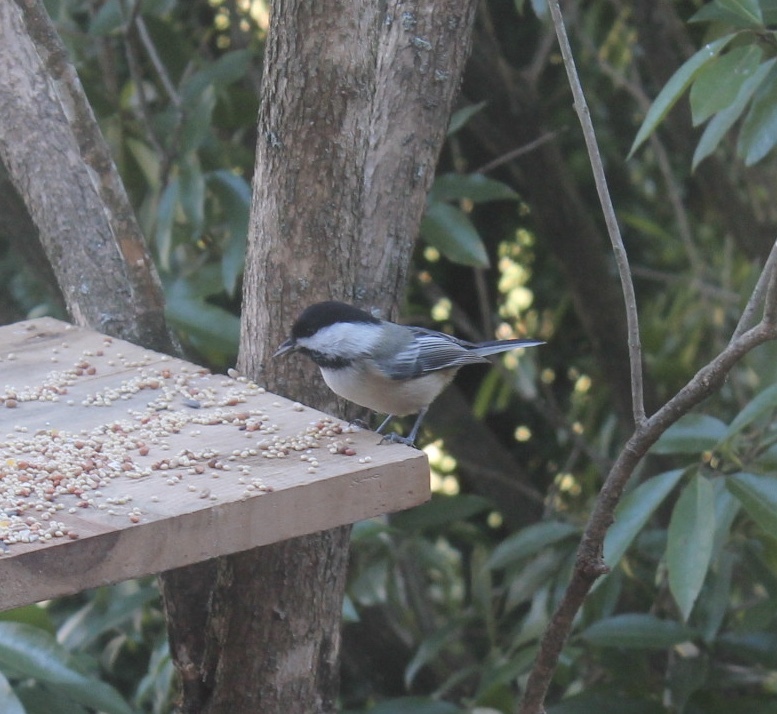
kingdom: Animalia
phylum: Chordata
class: Aves
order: Passeriformes
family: Paridae
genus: Poecile
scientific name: Poecile atricapillus
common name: Black-capped chickadee
